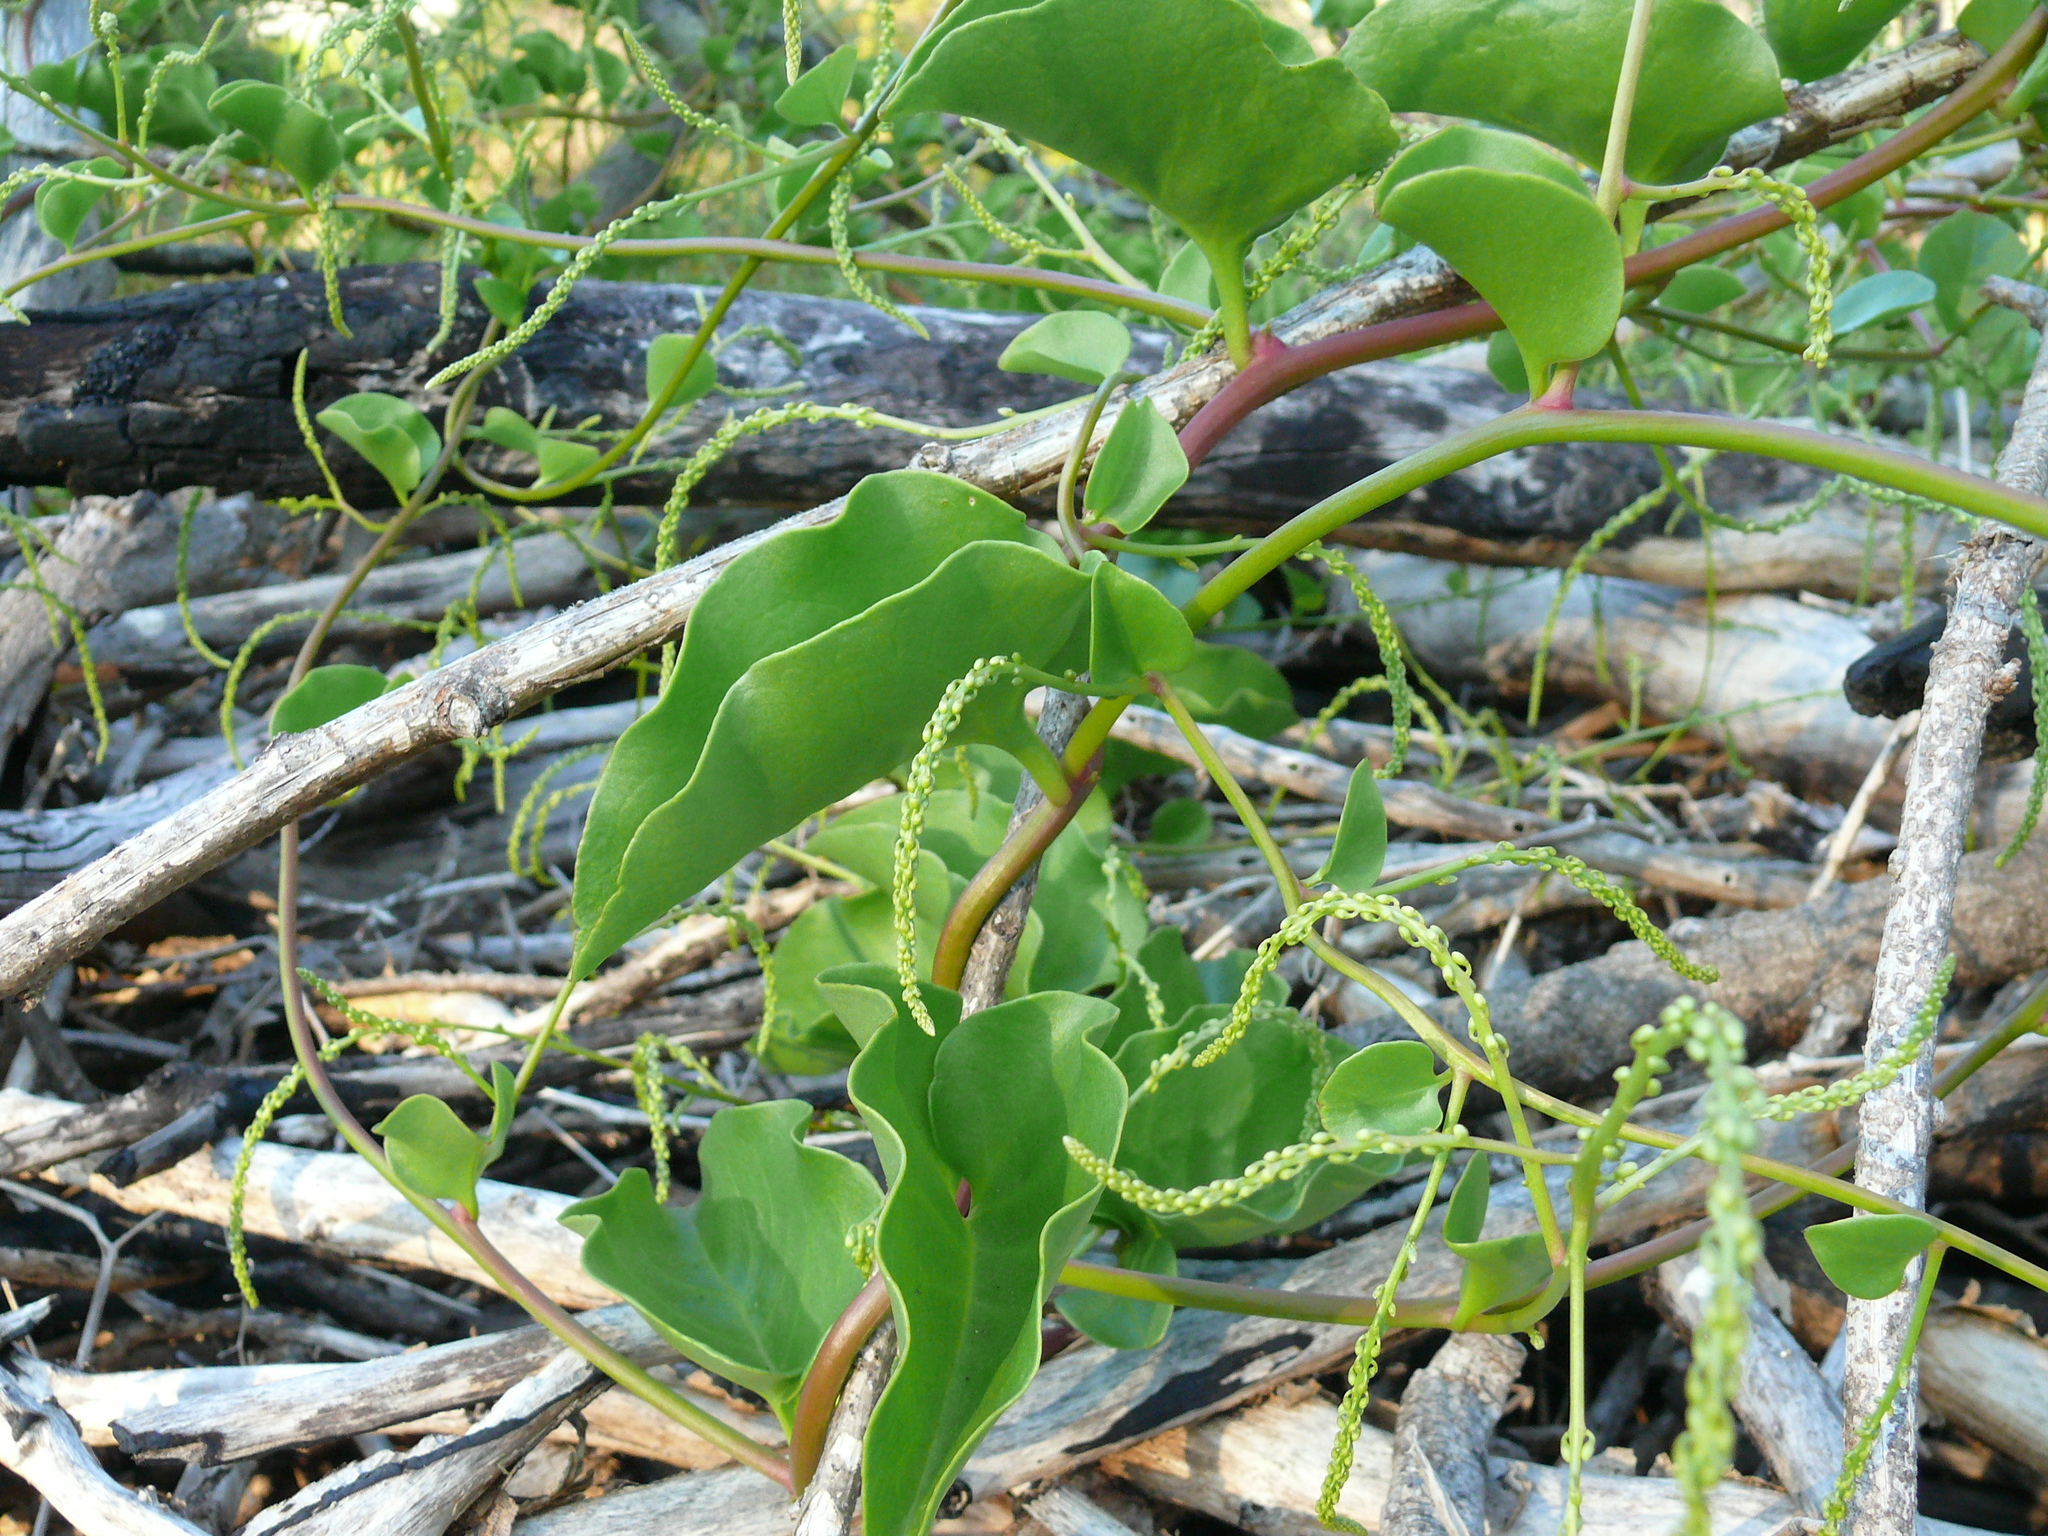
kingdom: Plantae
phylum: Tracheophyta
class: Magnoliopsida
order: Caryophyllales
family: Basellaceae
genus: Anredera
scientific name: Anredera cordifolia
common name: Heartleaf madeiravine
